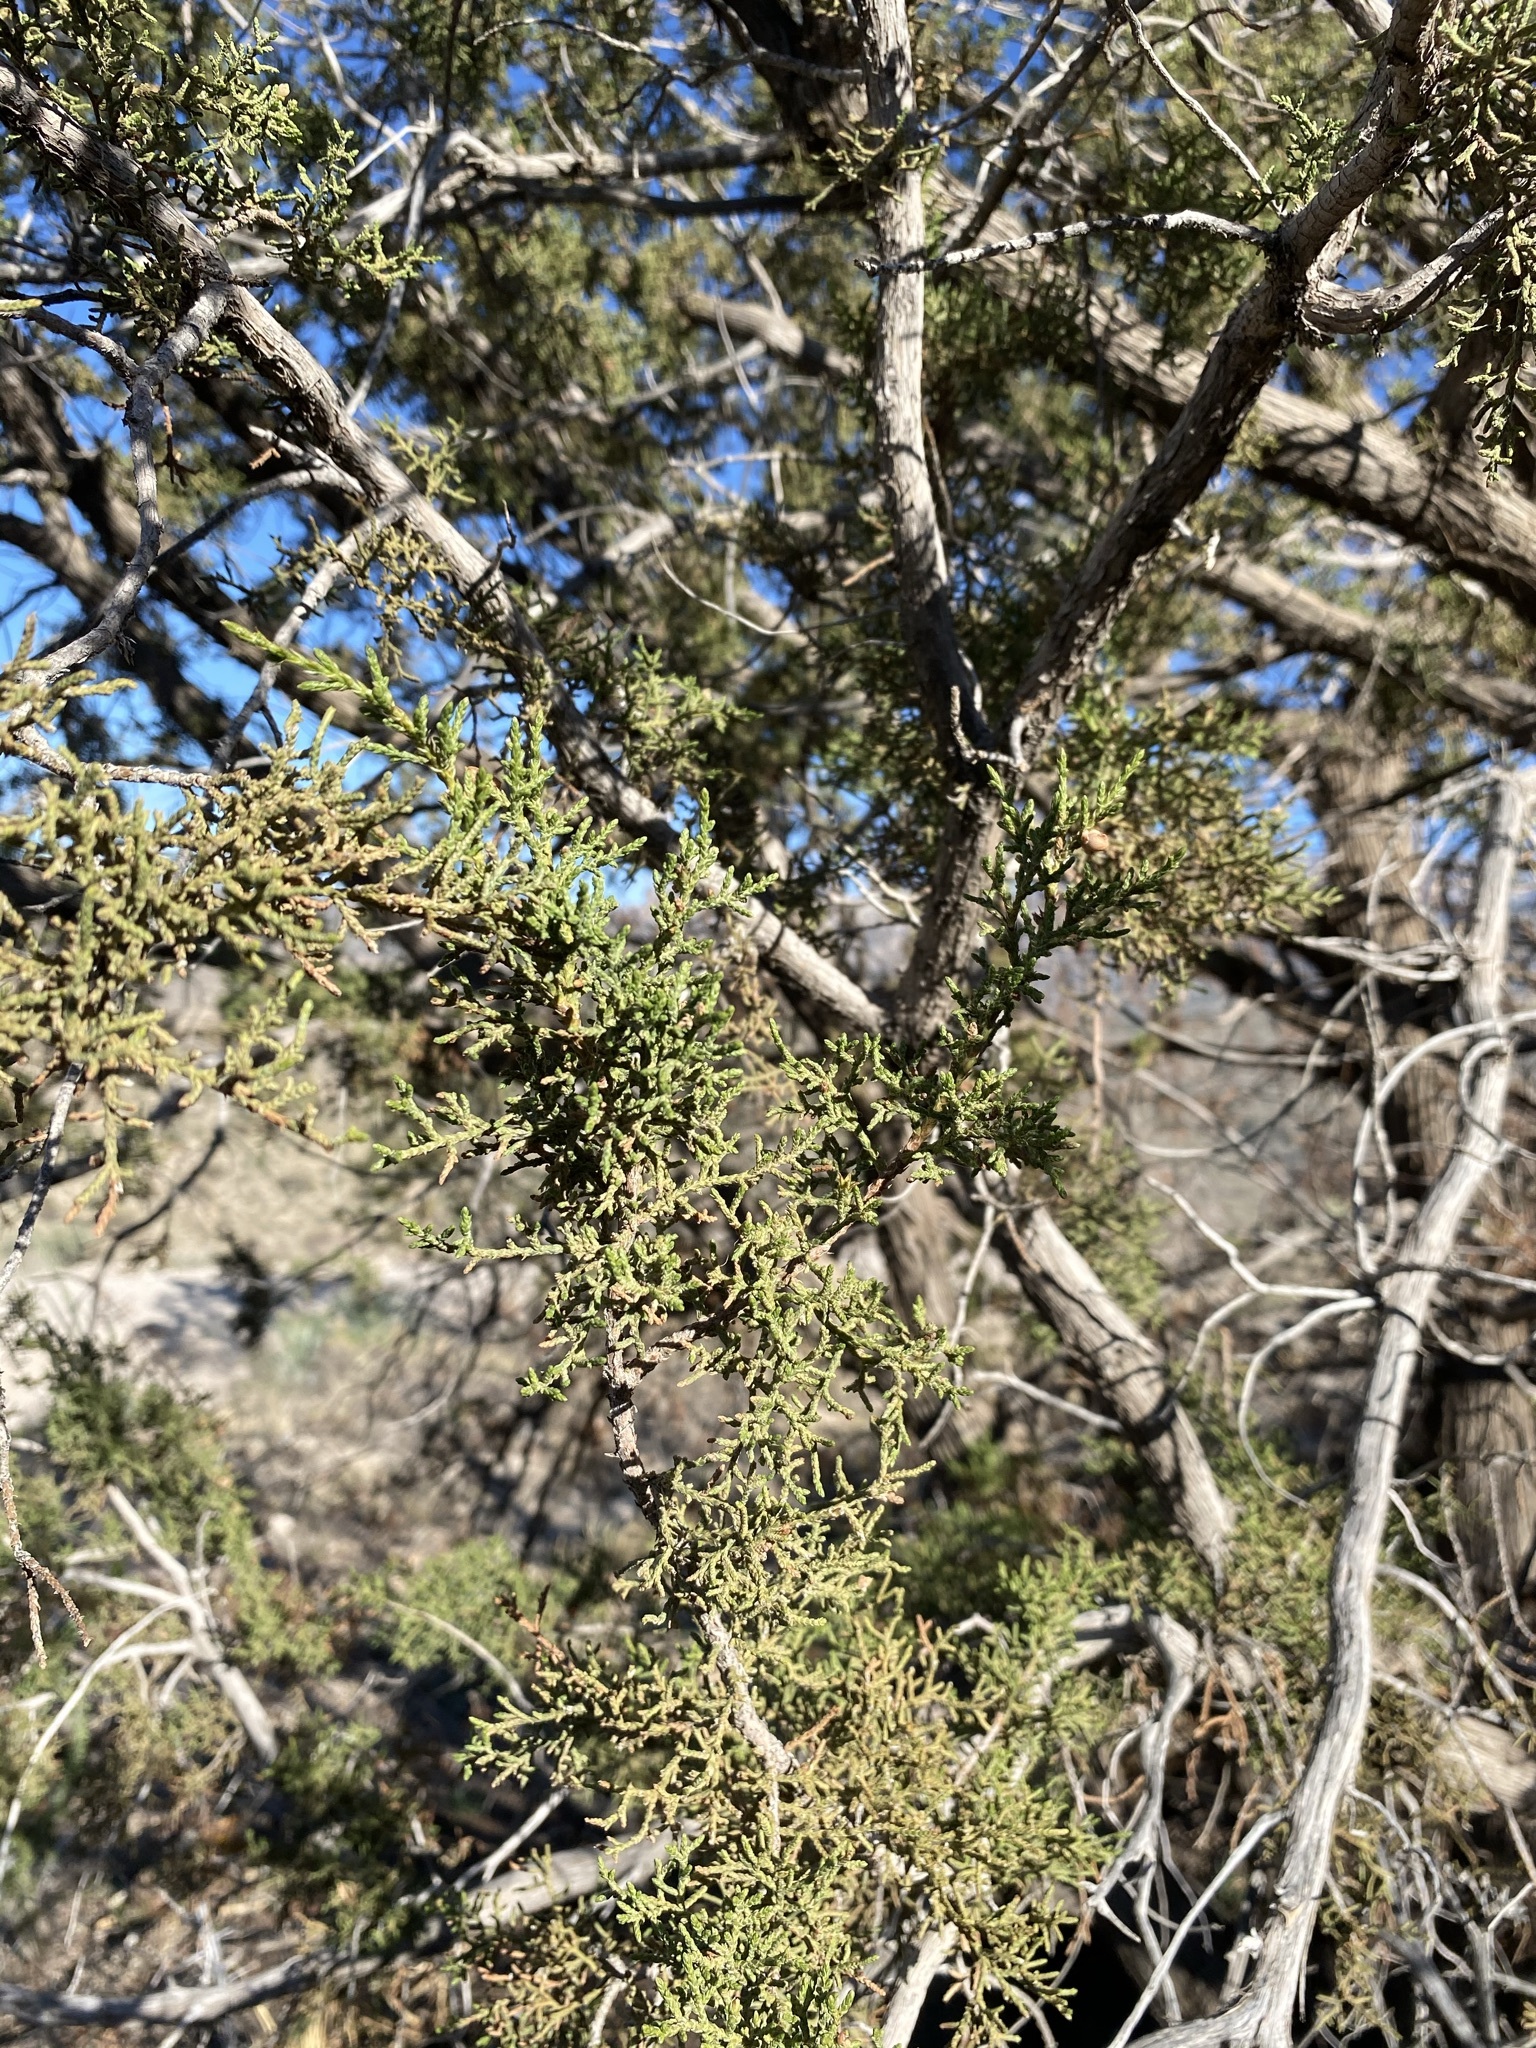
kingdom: Plantae
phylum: Tracheophyta
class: Pinopsida
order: Pinales
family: Cupressaceae
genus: Juniperus
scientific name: Juniperus arizonica
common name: Arizona juniper
